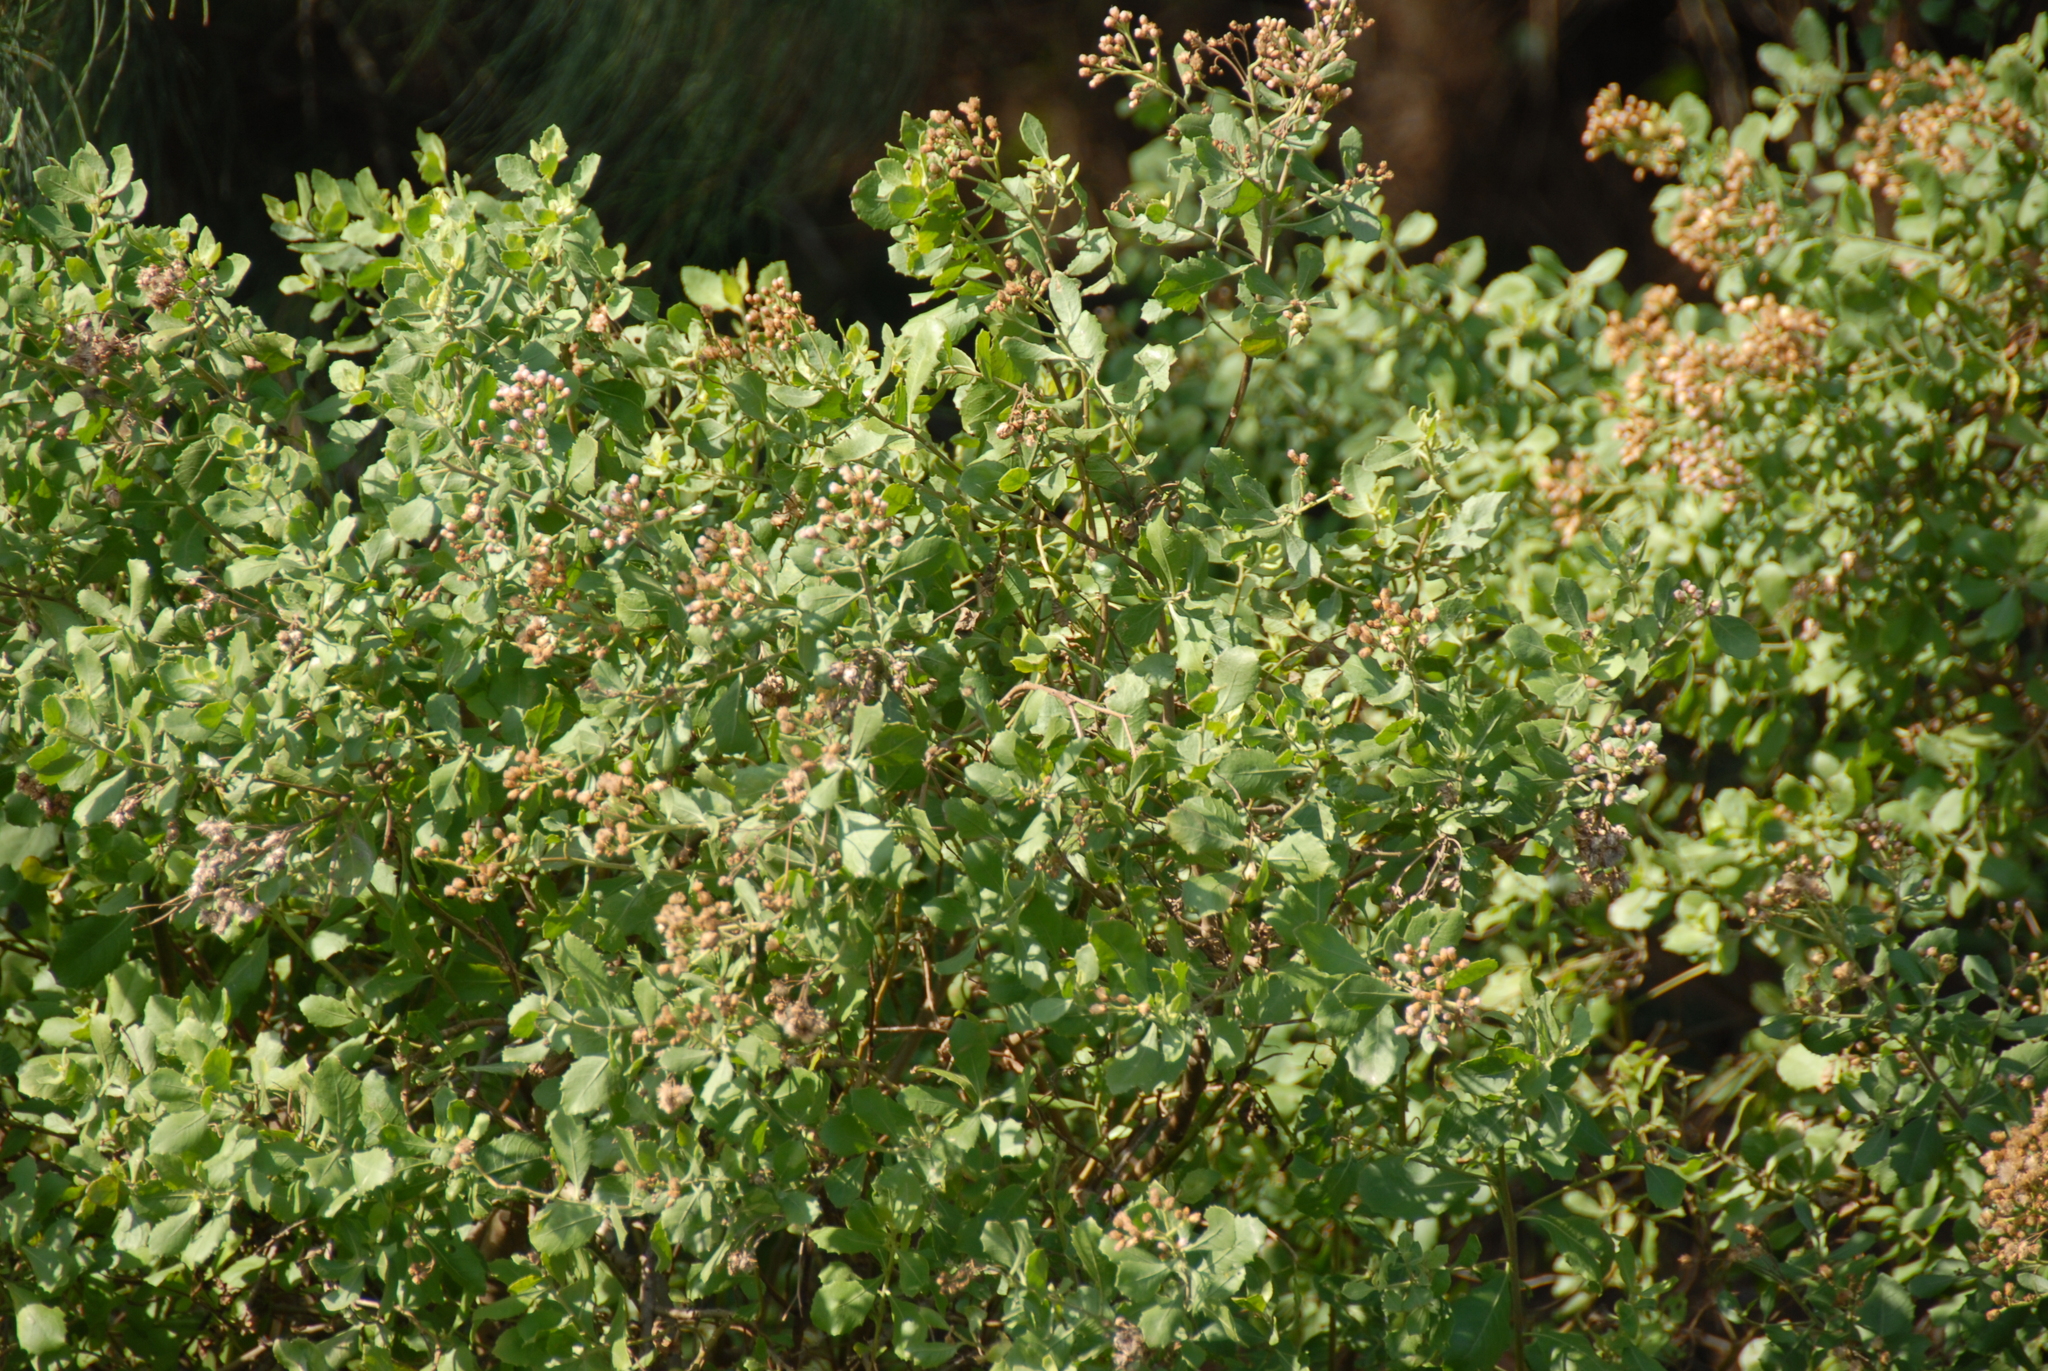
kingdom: Plantae
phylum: Tracheophyta
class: Magnoliopsida
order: Asterales
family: Asteraceae
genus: Pluchea
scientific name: Pluchea indica
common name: Indian fleabane
